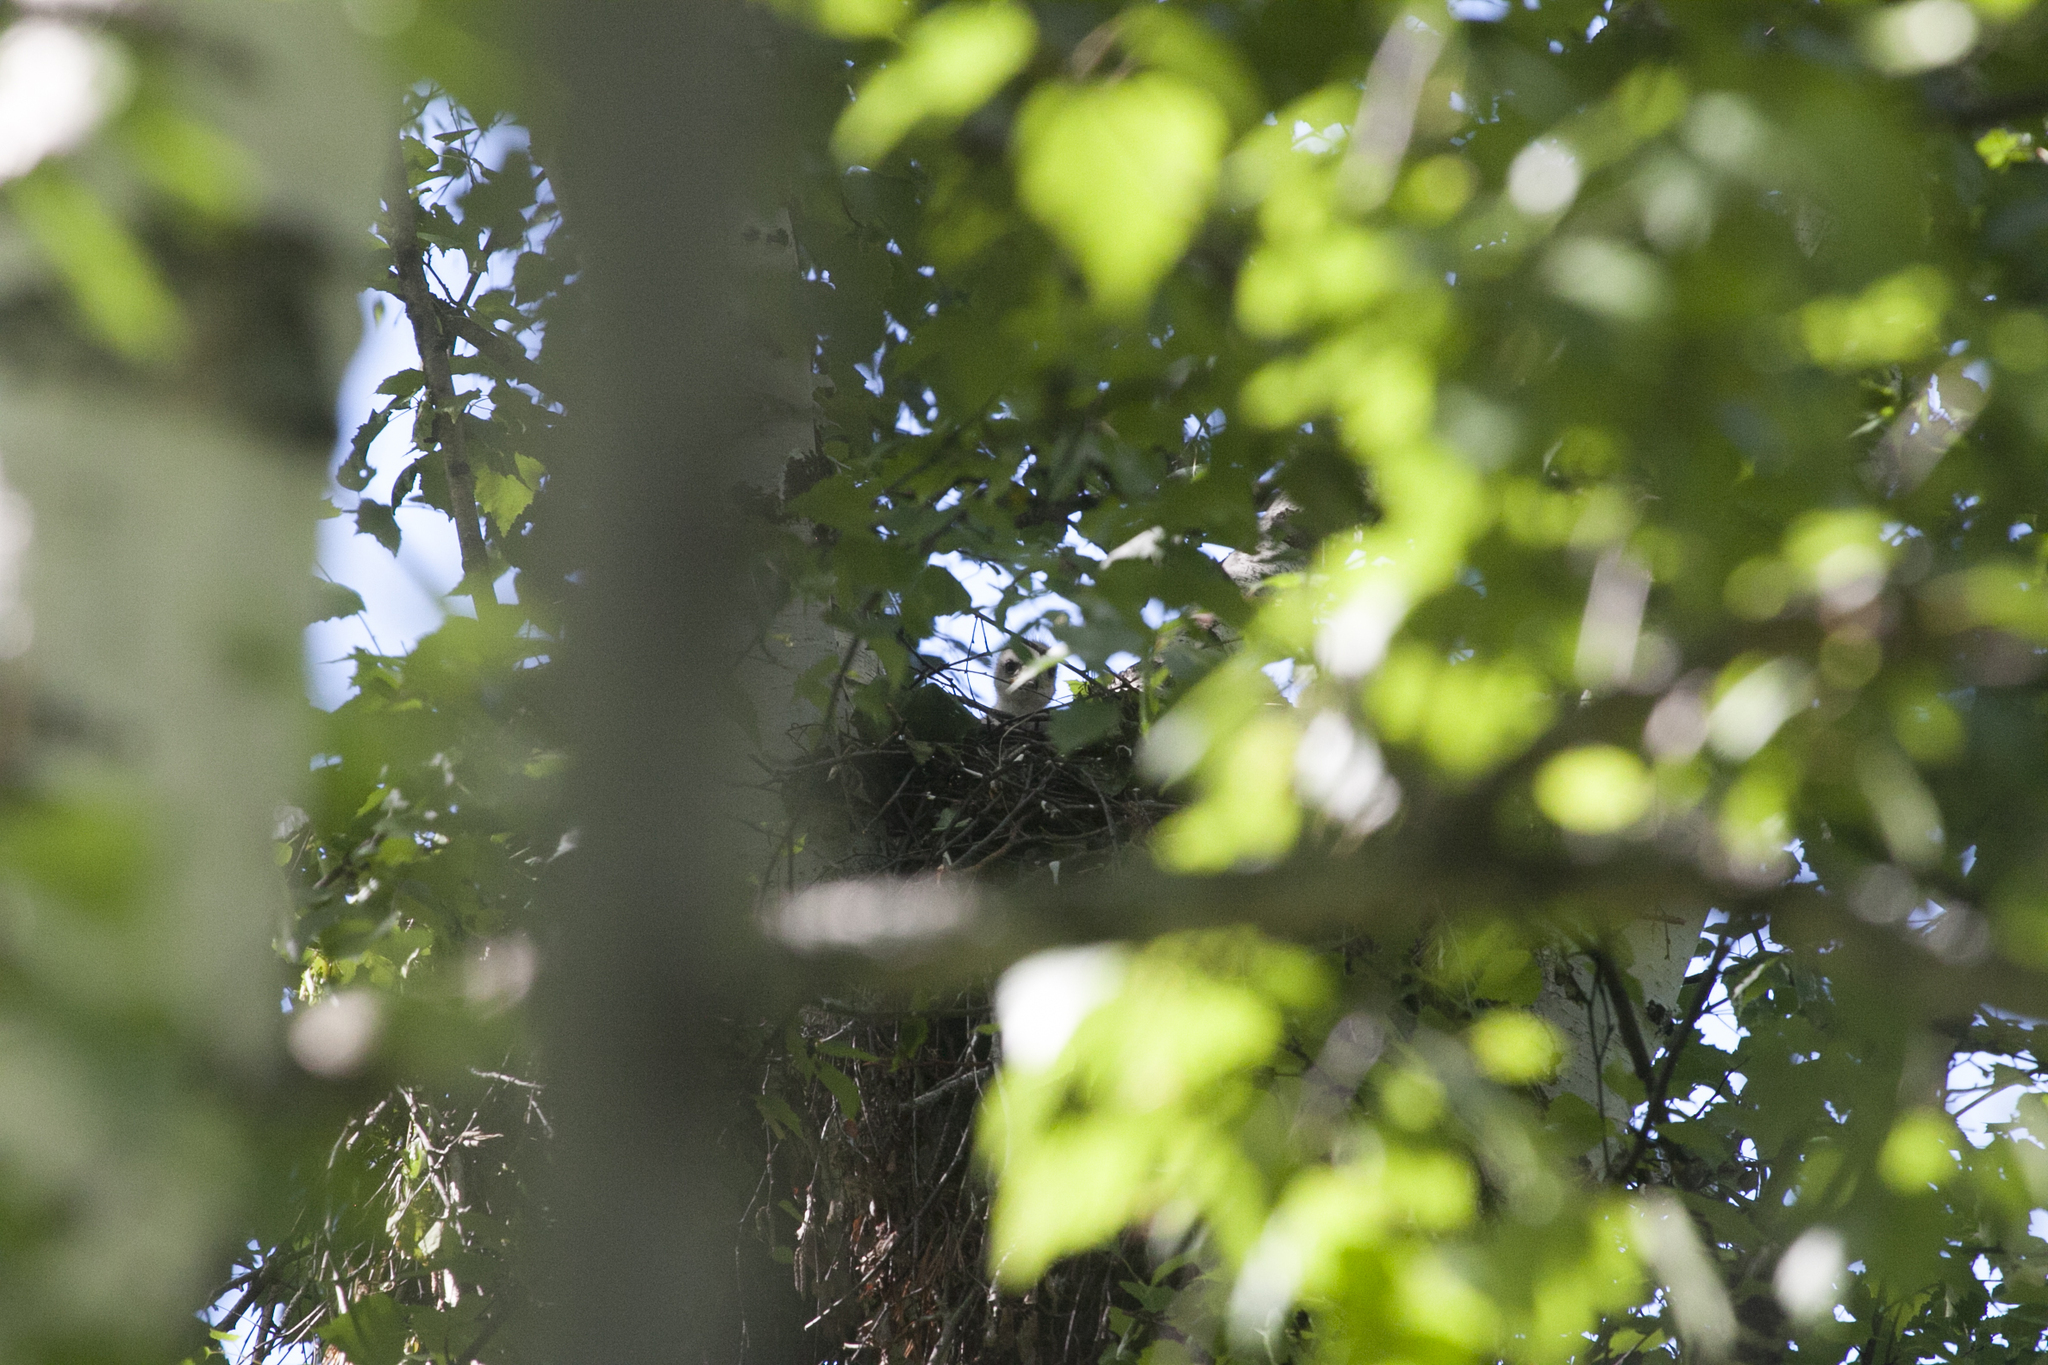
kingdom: Animalia
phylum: Chordata
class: Aves
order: Accipitriformes
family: Accipitridae
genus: Buteo
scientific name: Buteo buteo
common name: Common buzzard
